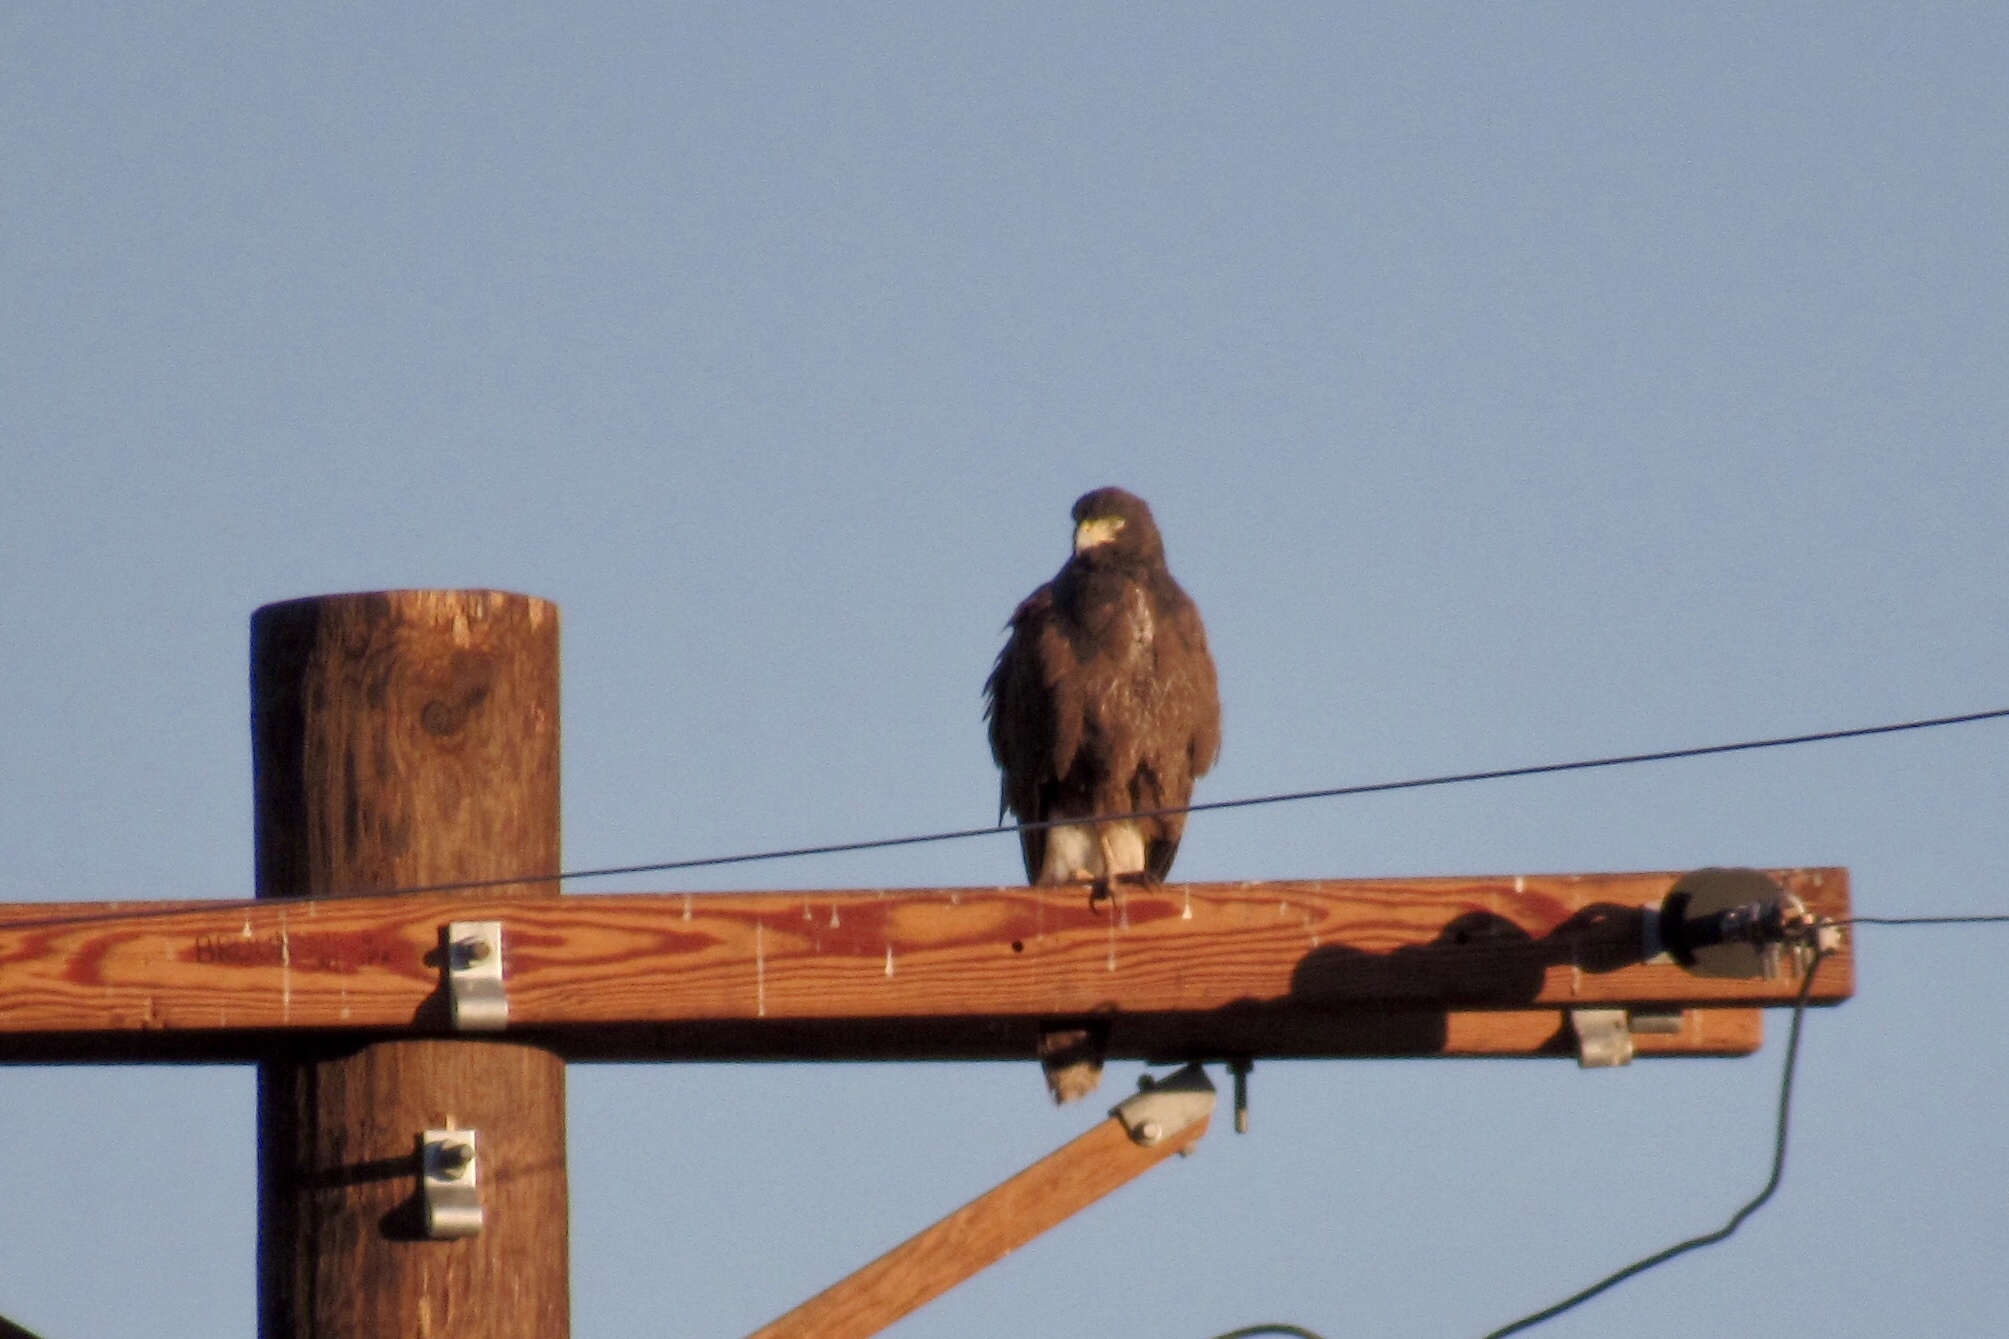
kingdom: Animalia
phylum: Chordata
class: Aves
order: Accipitriformes
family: Accipitridae
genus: Parabuteo
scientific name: Parabuteo unicinctus
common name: Harris's hawk
